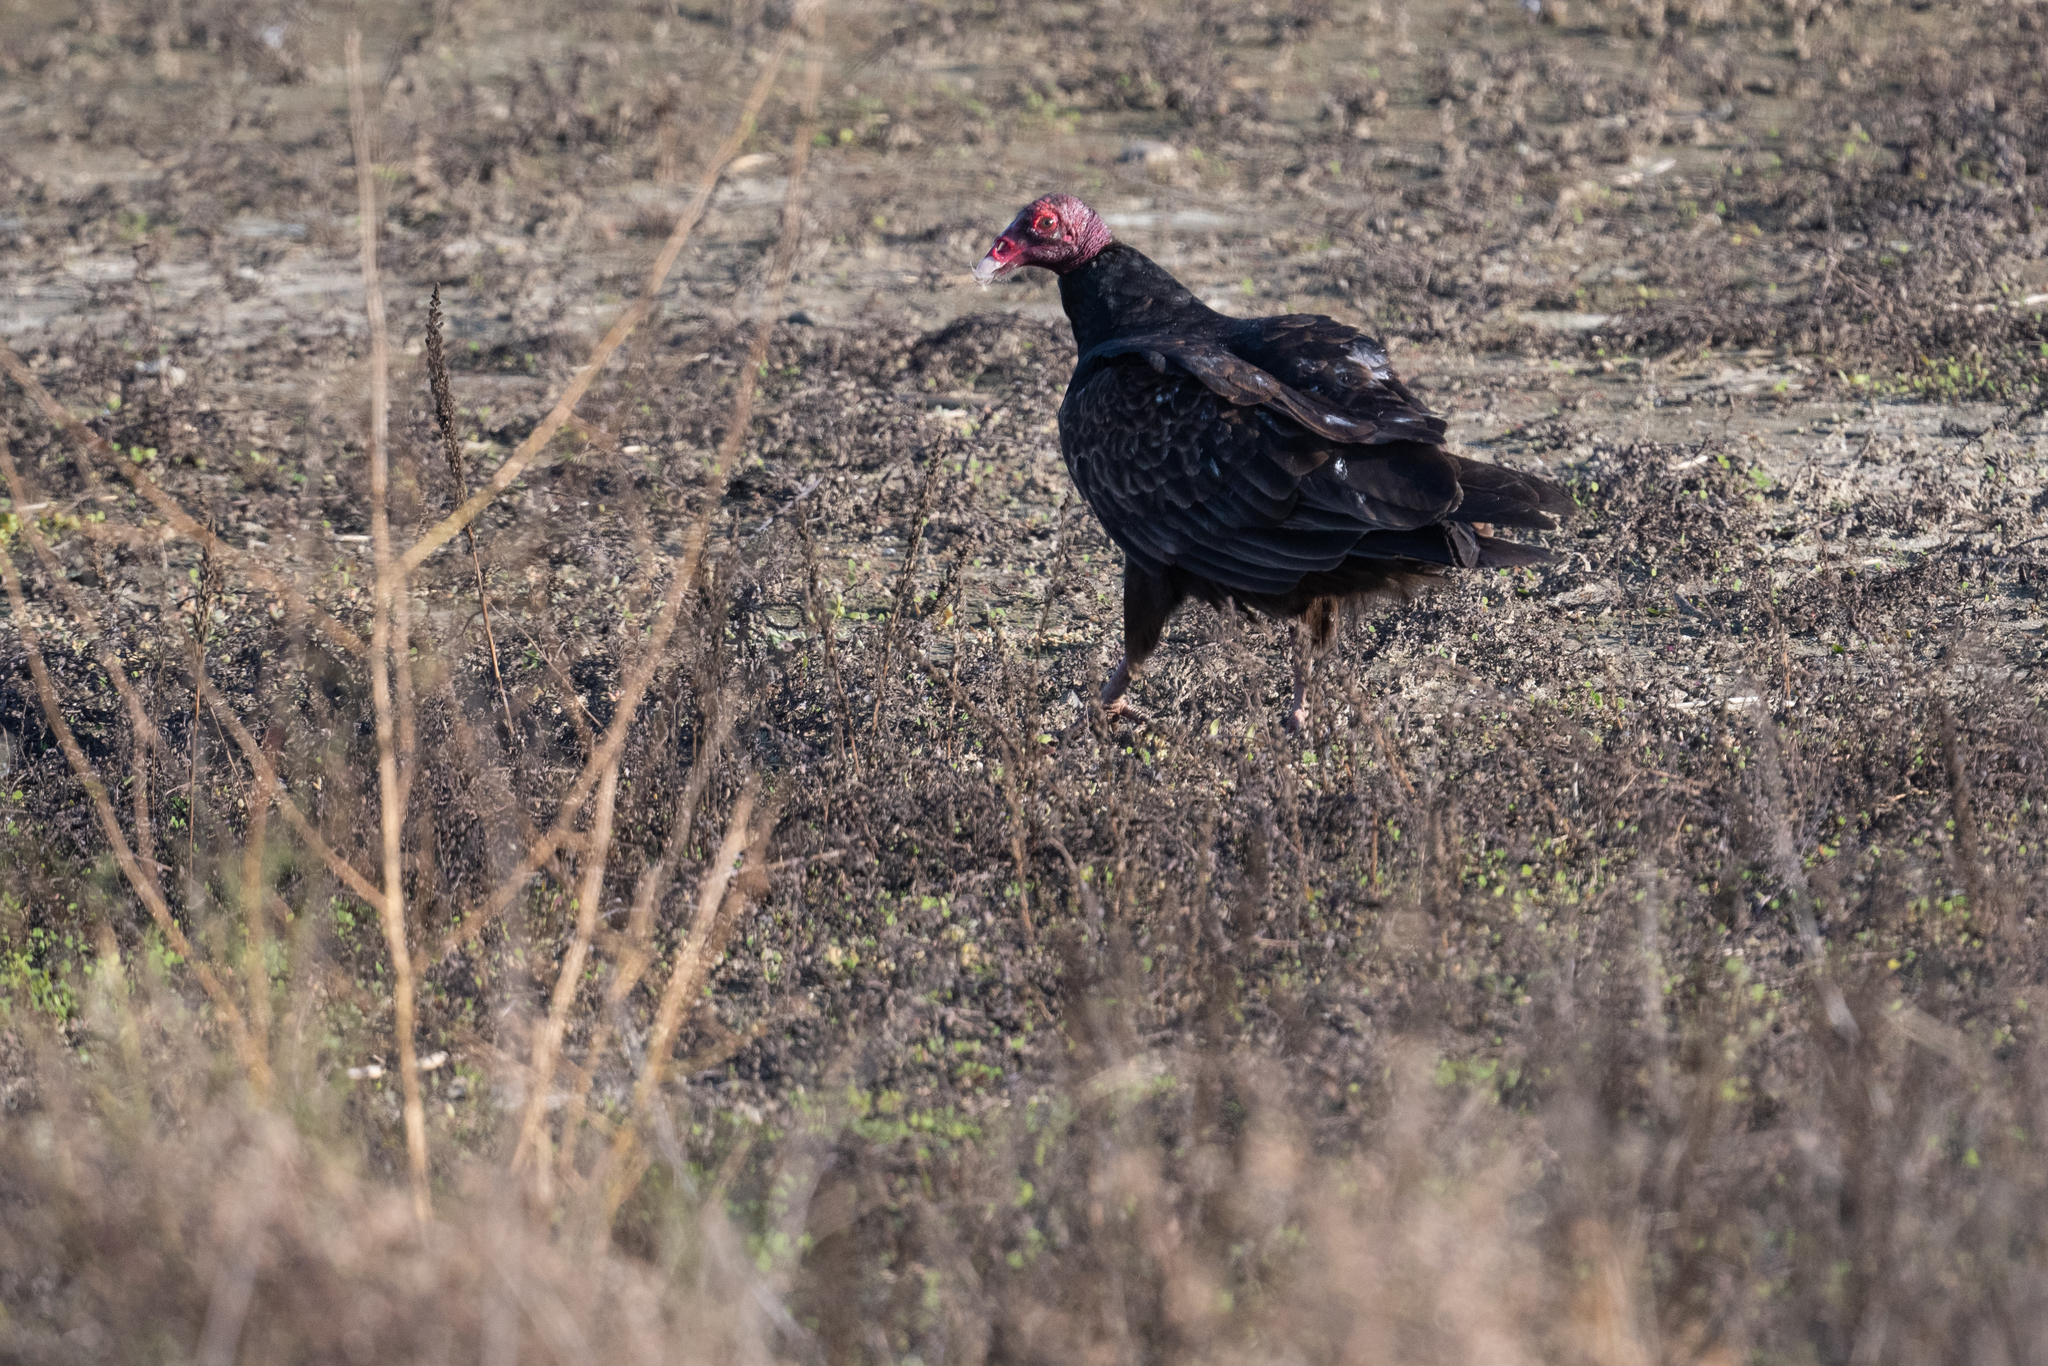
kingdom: Animalia
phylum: Chordata
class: Aves
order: Accipitriformes
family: Cathartidae
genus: Cathartes
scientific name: Cathartes aura
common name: Turkey vulture
